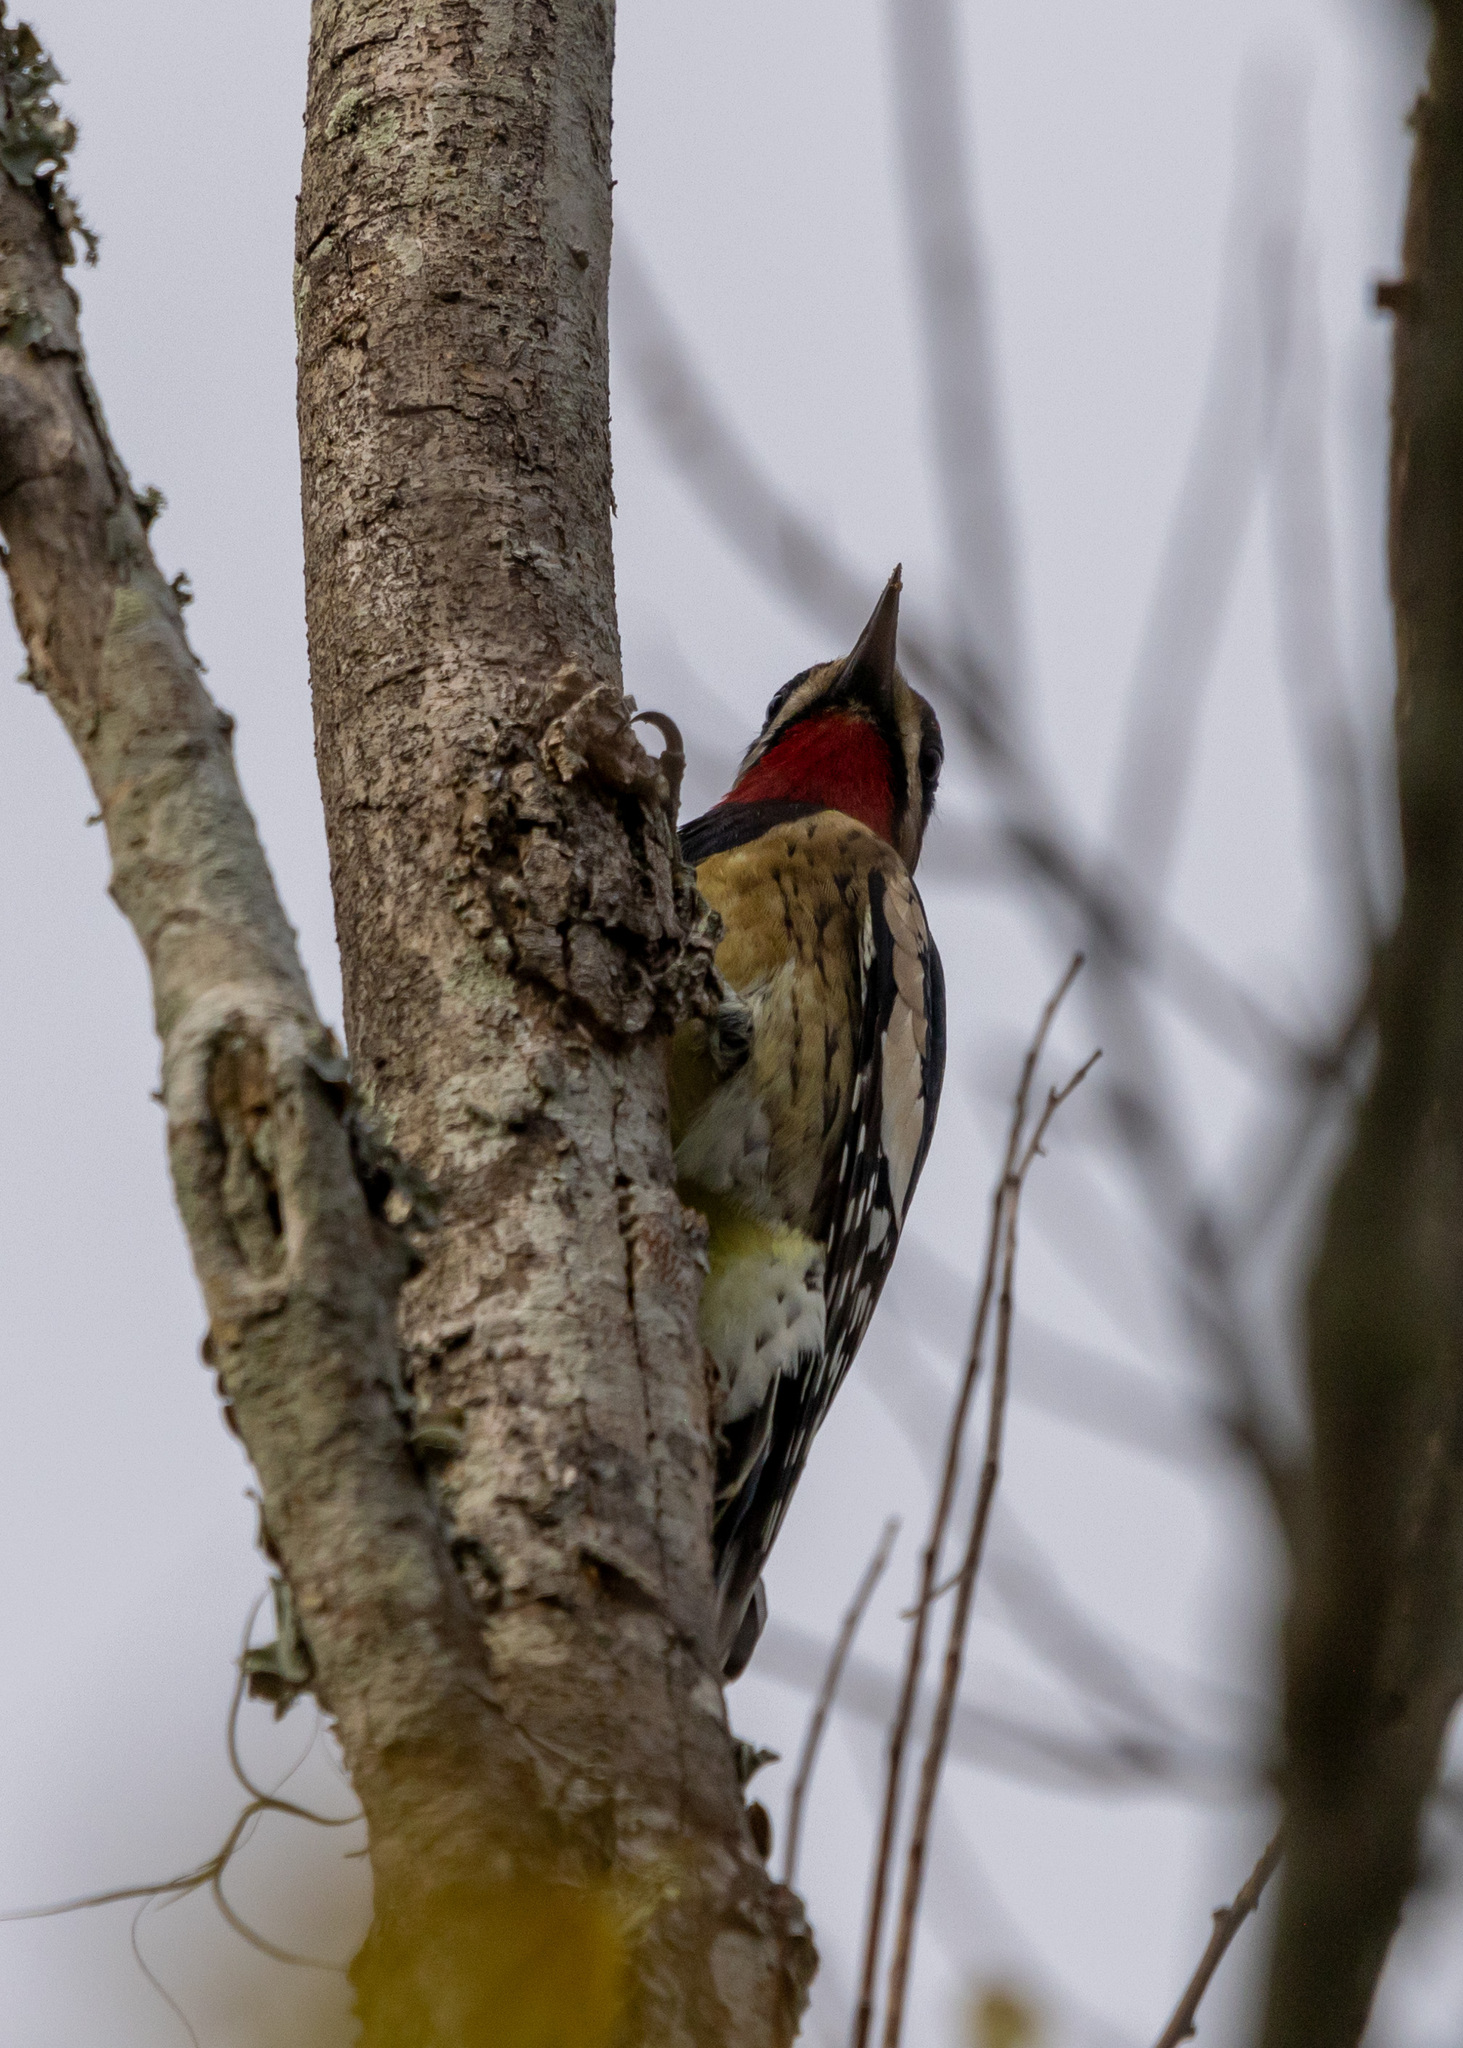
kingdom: Animalia
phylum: Chordata
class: Aves
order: Piciformes
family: Picidae
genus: Sphyrapicus
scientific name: Sphyrapicus varius
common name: Yellow-bellied sapsucker
